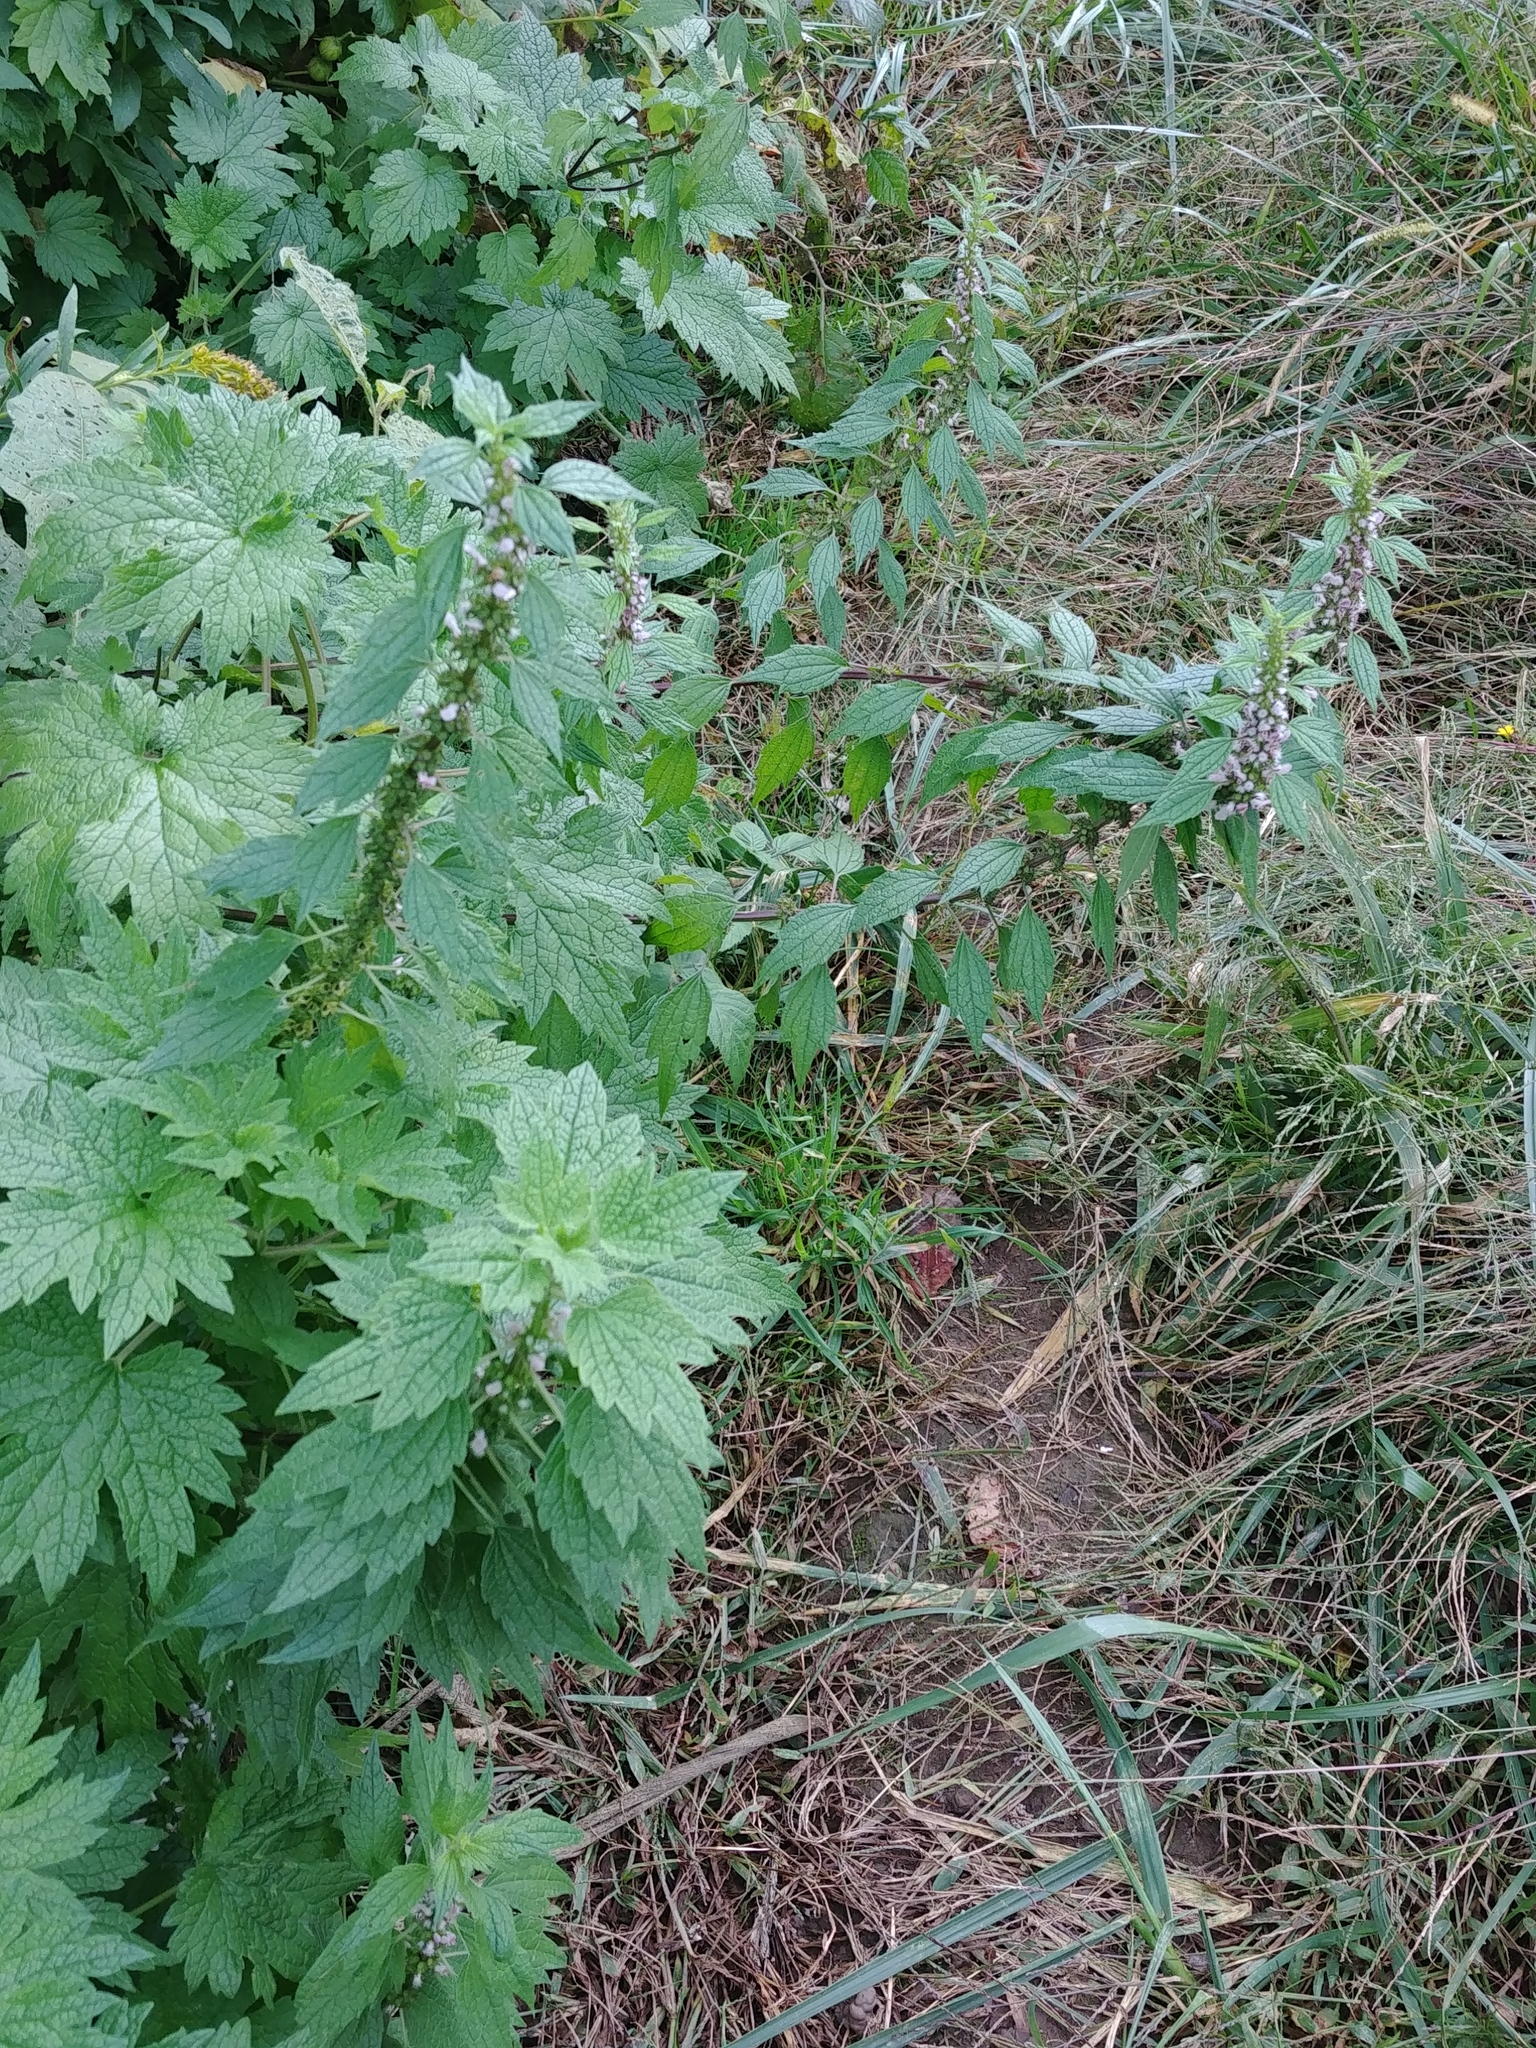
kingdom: Plantae
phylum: Tracheophyta
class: Magnoliopsida
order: Lamiales
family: Lamiaceae
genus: Leonurus
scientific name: Leonurus cardiaca
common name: Motherwort
